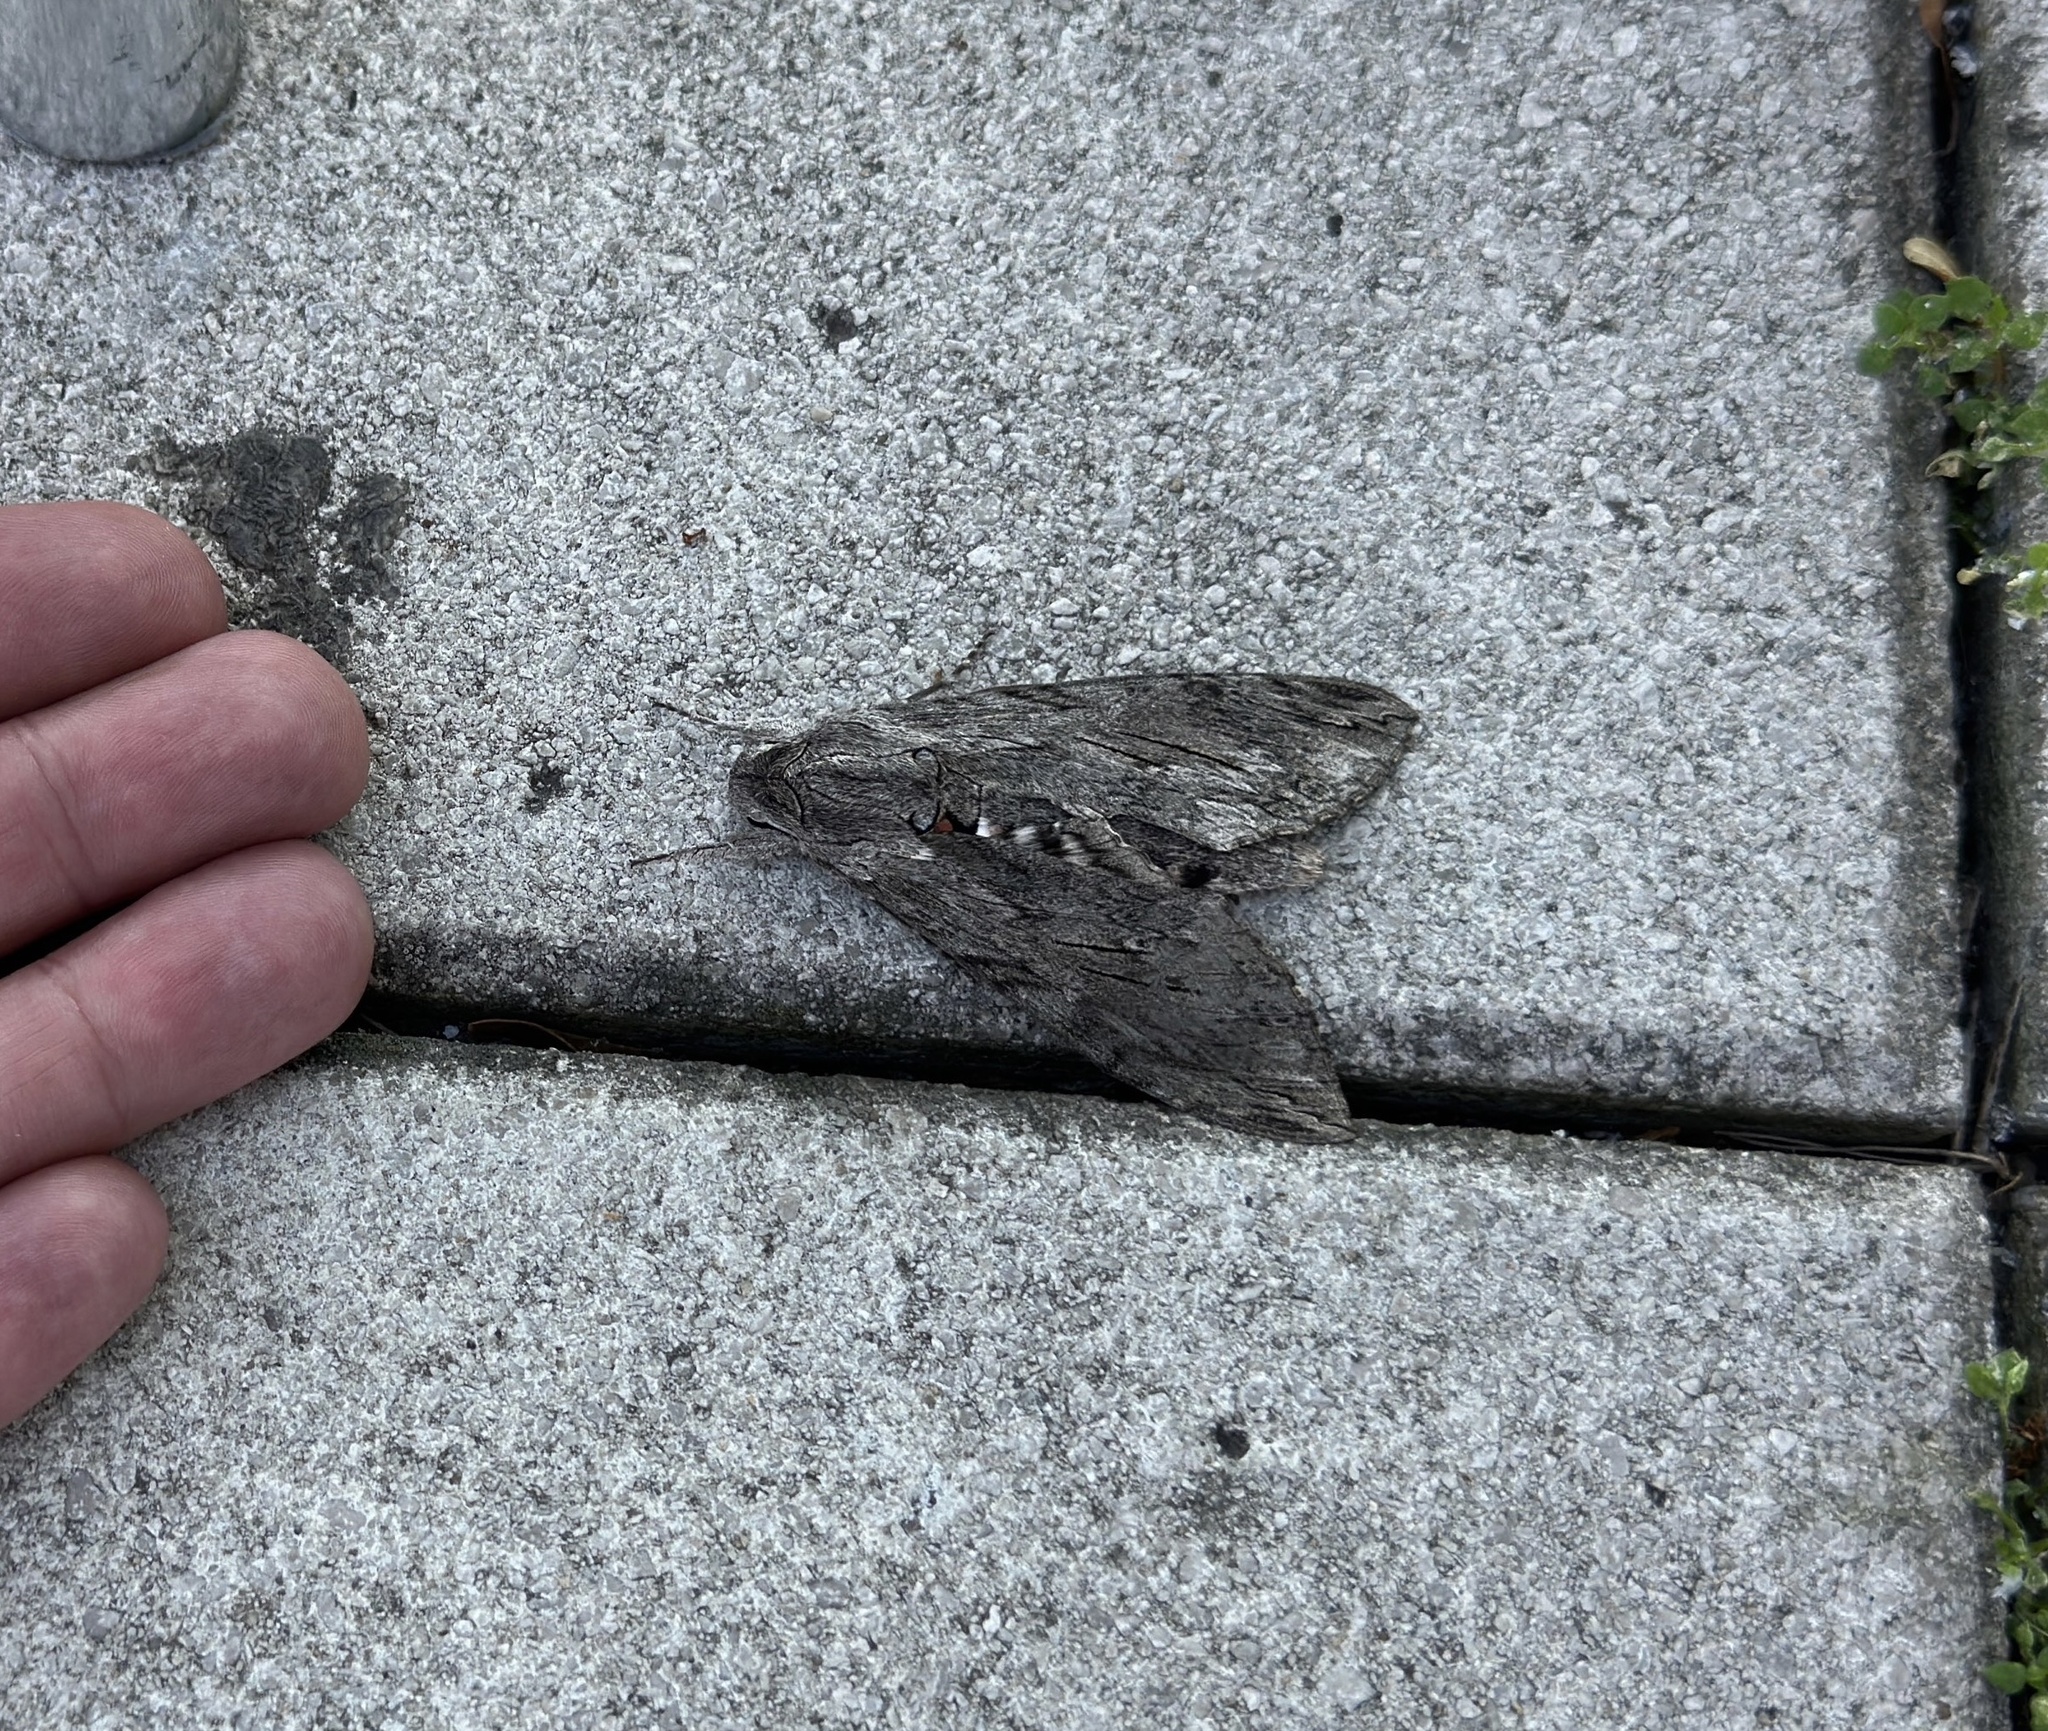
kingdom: Animalia
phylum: Arthropoda
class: Insecta
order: Lepidoptera
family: Sphingidae
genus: Agrius
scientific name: Agrius convolvuli
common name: Convolvulus hawkmoth
